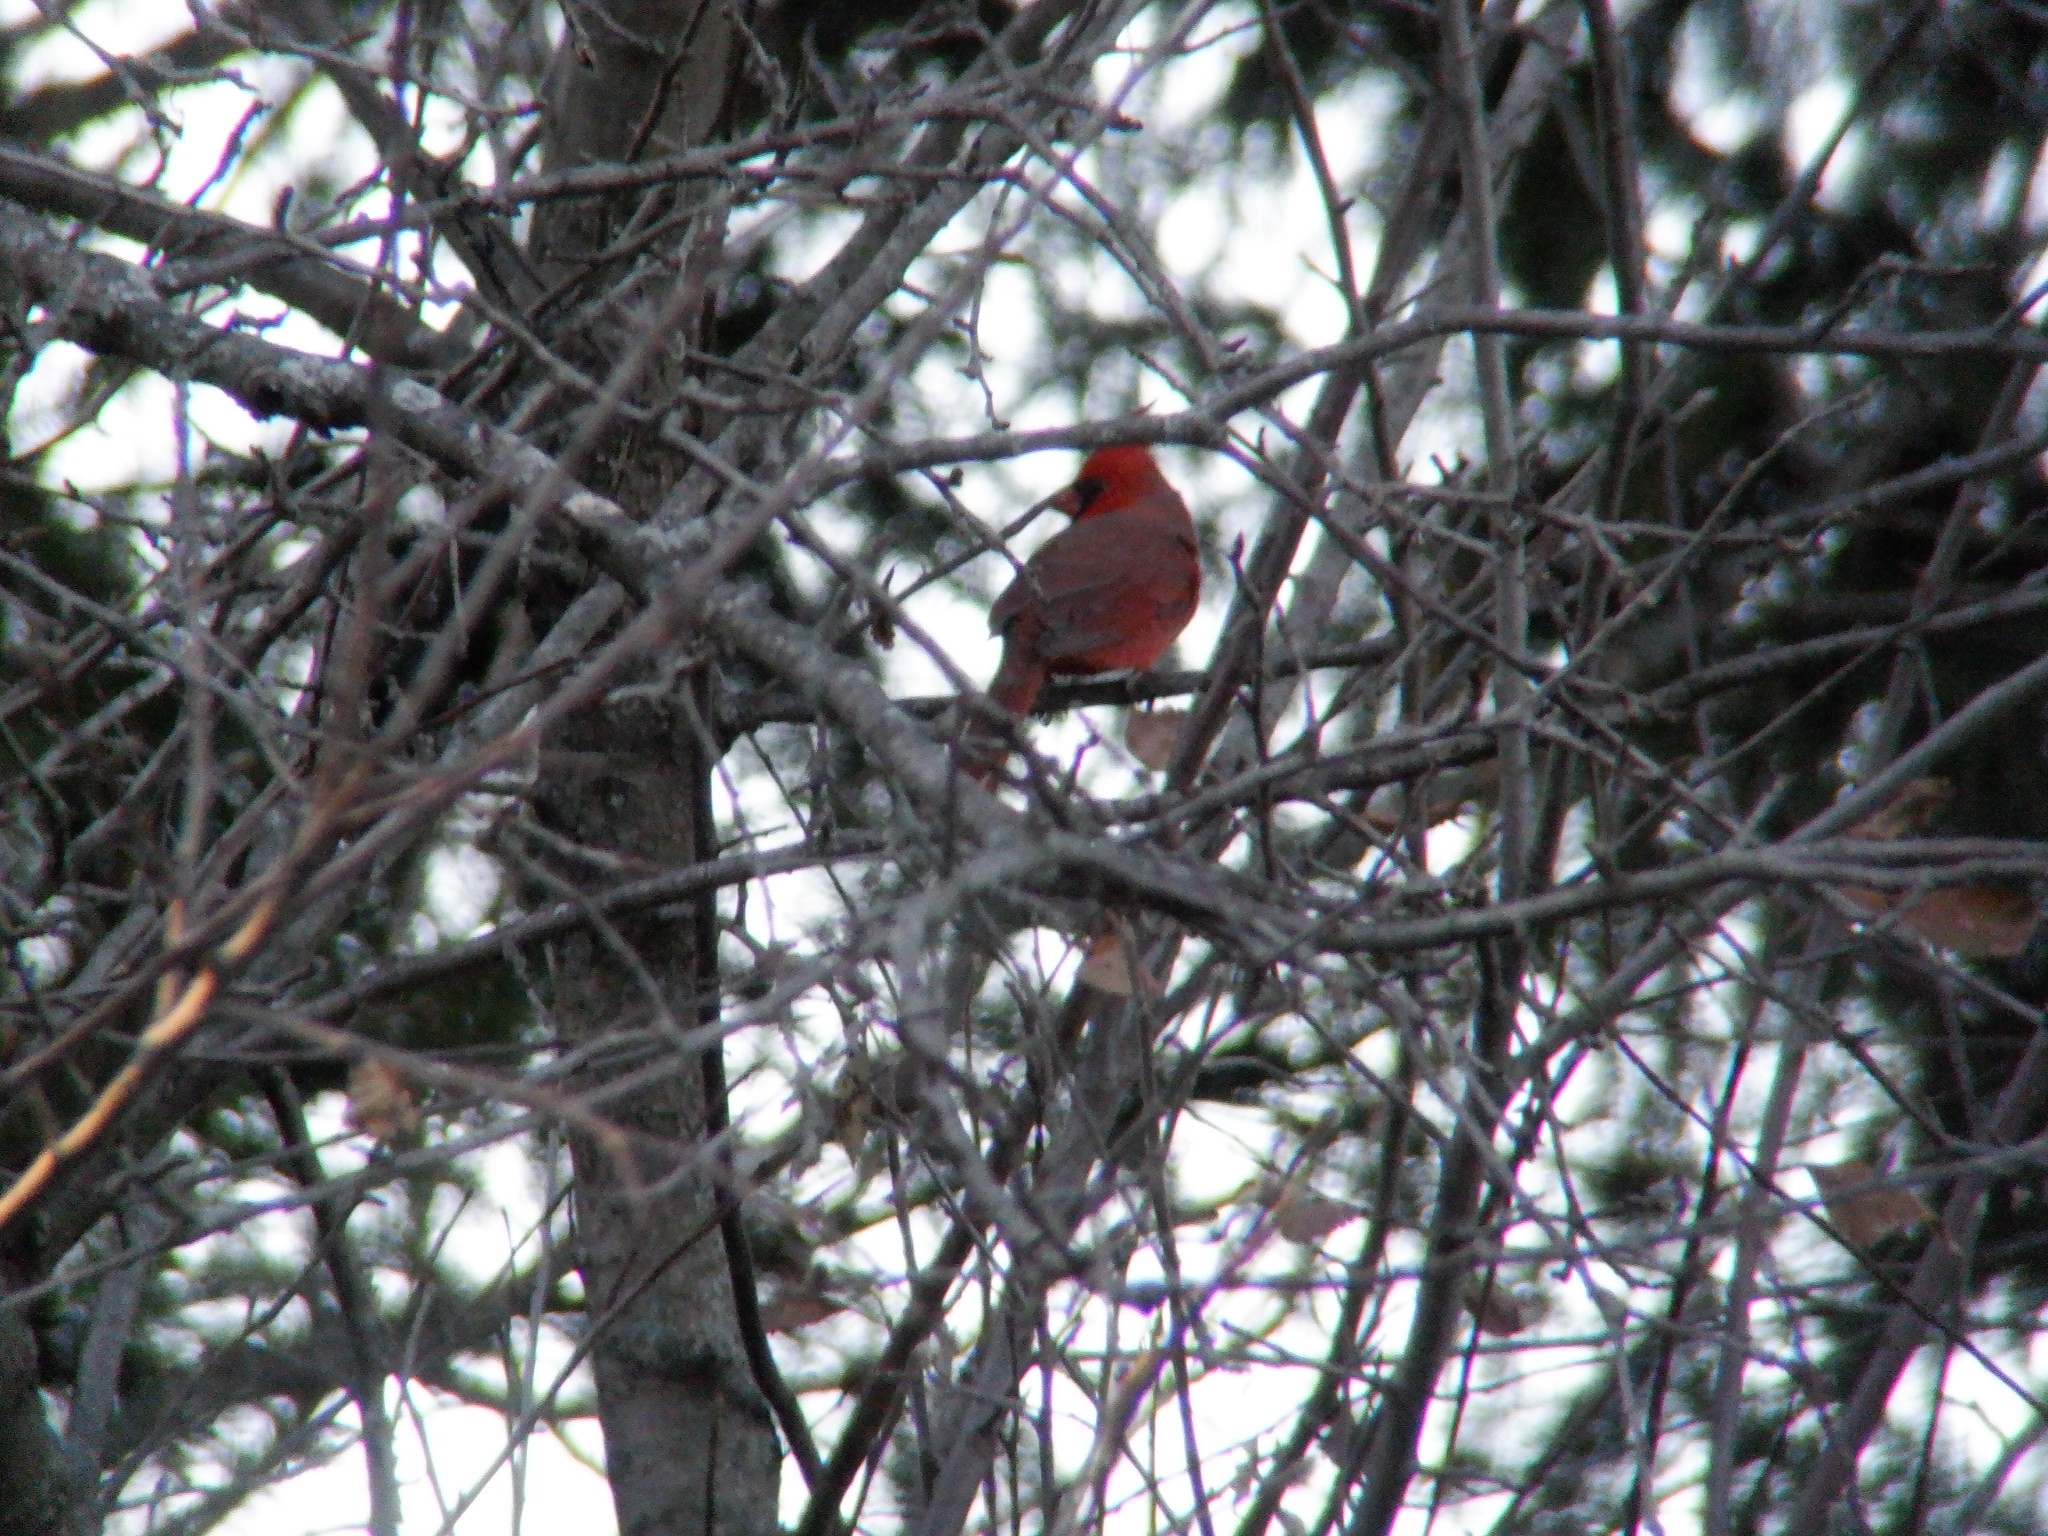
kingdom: Animalia
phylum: Chordata
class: Aves
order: Passeriformes
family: Cardinalidae
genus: Cardinalis
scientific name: Cardinalis cardinalis
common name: Northern cardinal
